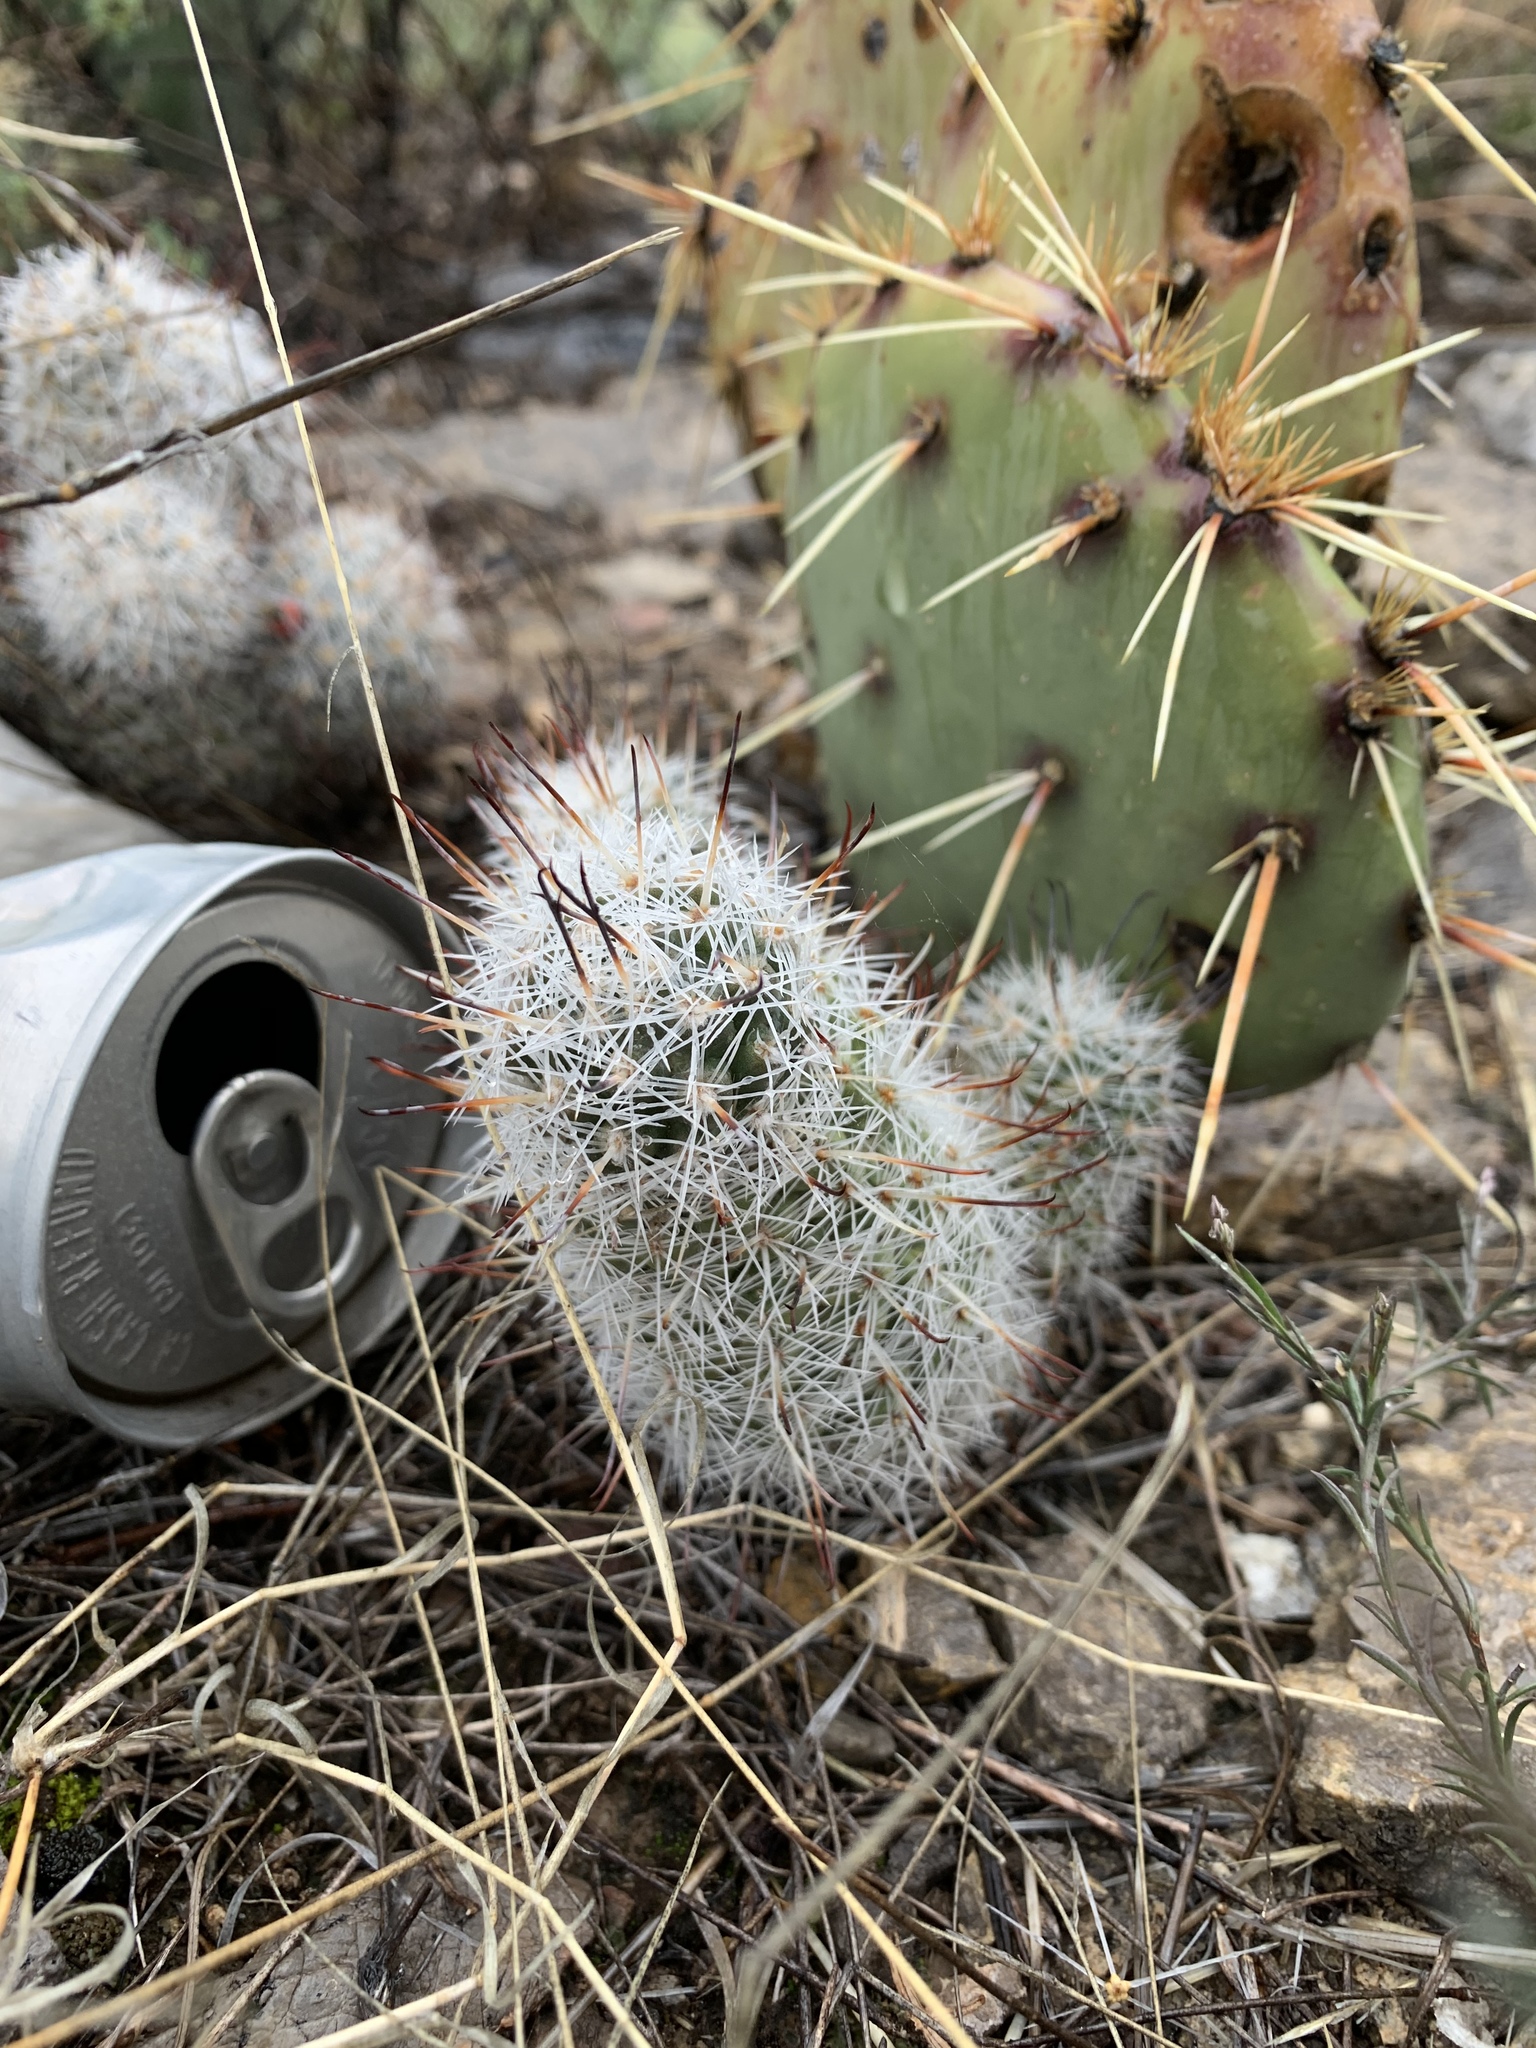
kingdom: Plantae
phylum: Tracheophyta
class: Magnoliopsida
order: Caryophyllales
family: Cactaceae
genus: Cochemiea
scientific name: Cochemiea grahamii
